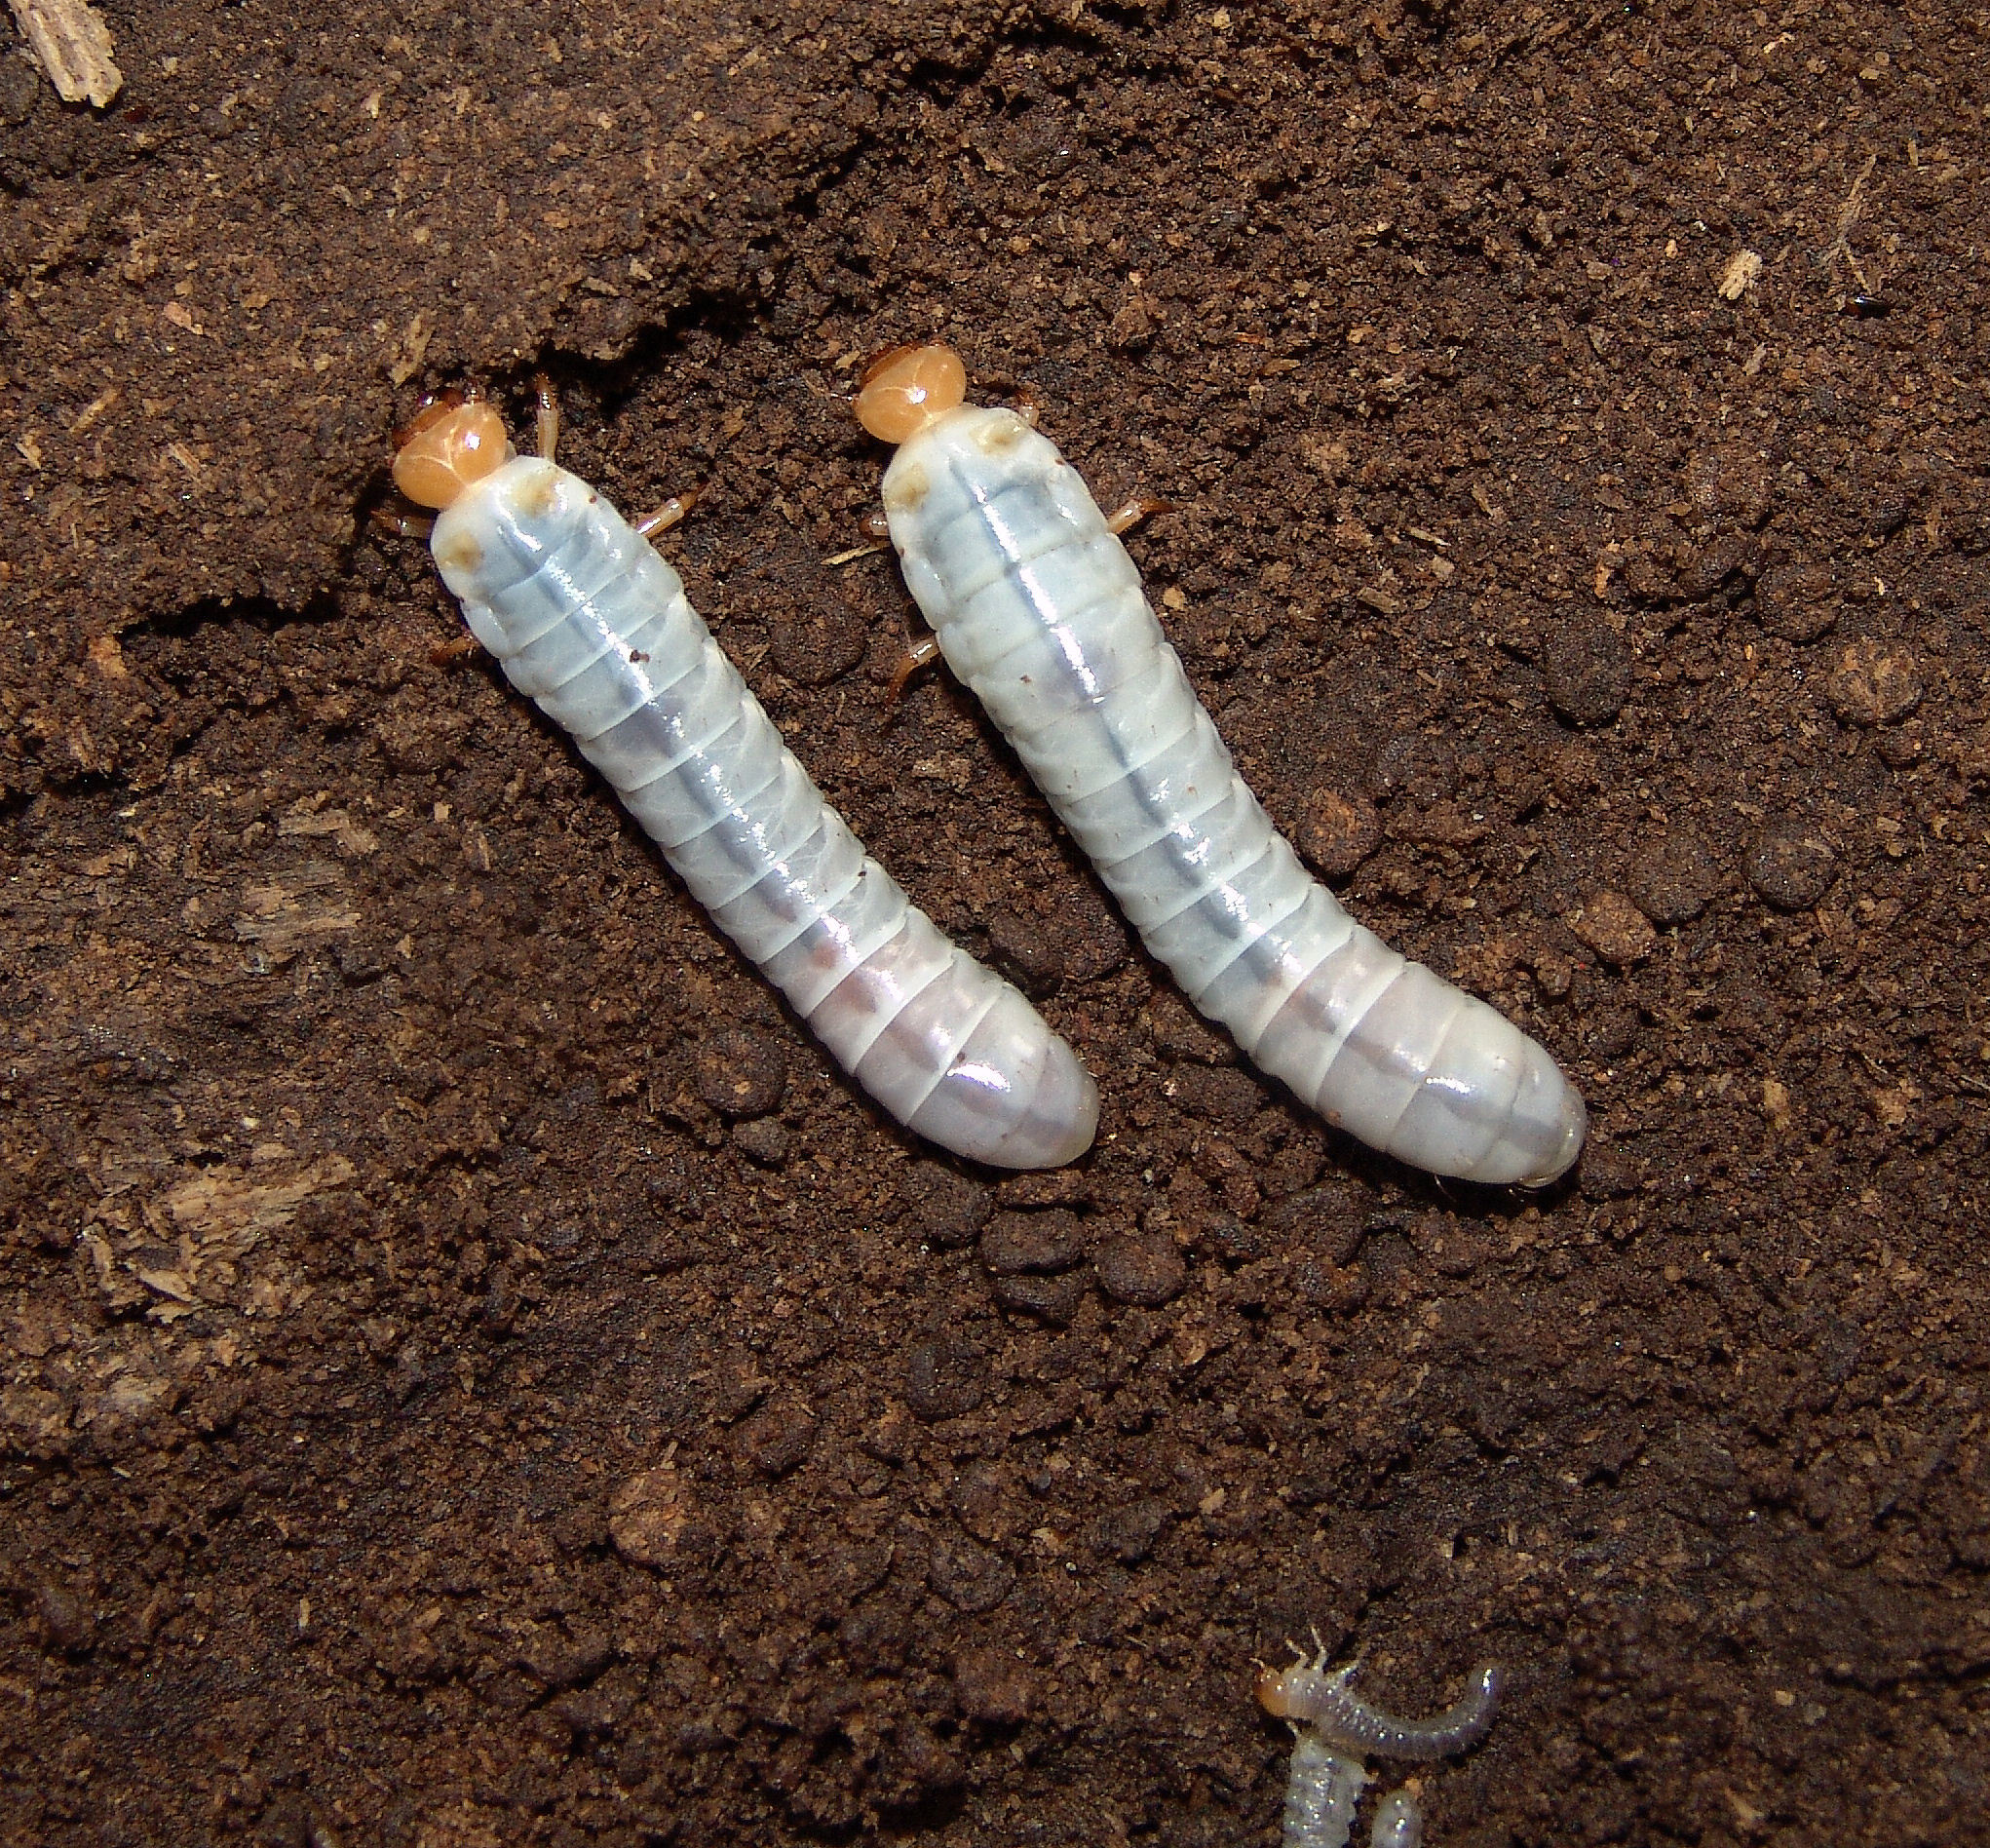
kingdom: Animalia
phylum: Arthropoda
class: Insecta
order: Coleoptera
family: Passalidae
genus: Odontotaenius
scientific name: Odontotaenius disjunctus
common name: Patent leather beetle
